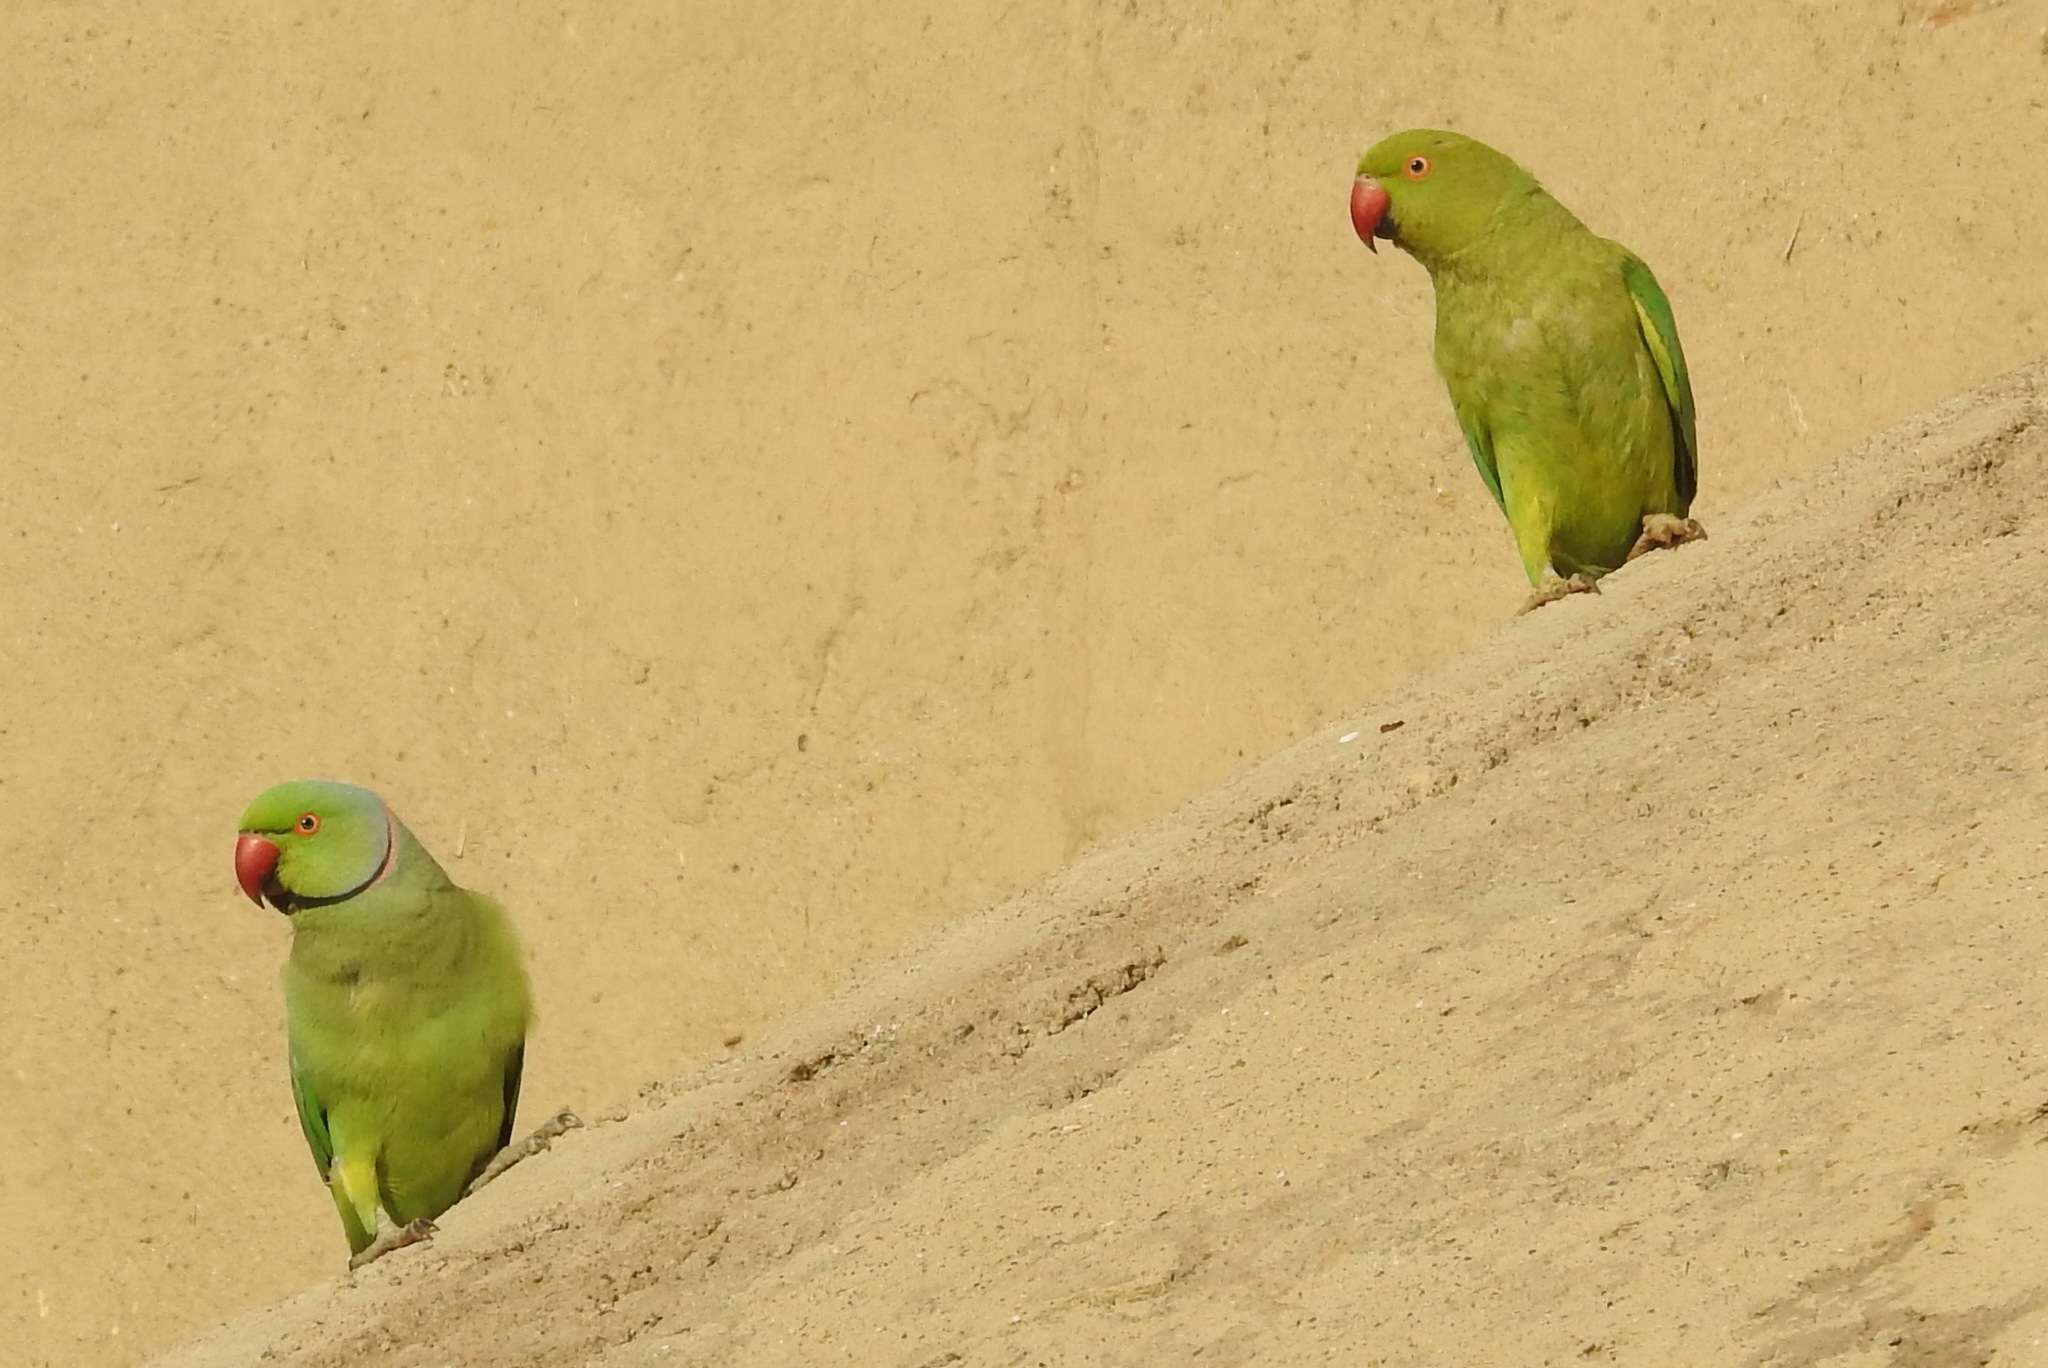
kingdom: Animalia
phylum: Chordata
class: Aves
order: Psittaciformes
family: Psittacidae
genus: Psittacula
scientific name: Psittacula krameri
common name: Rose-ringed parakeet
